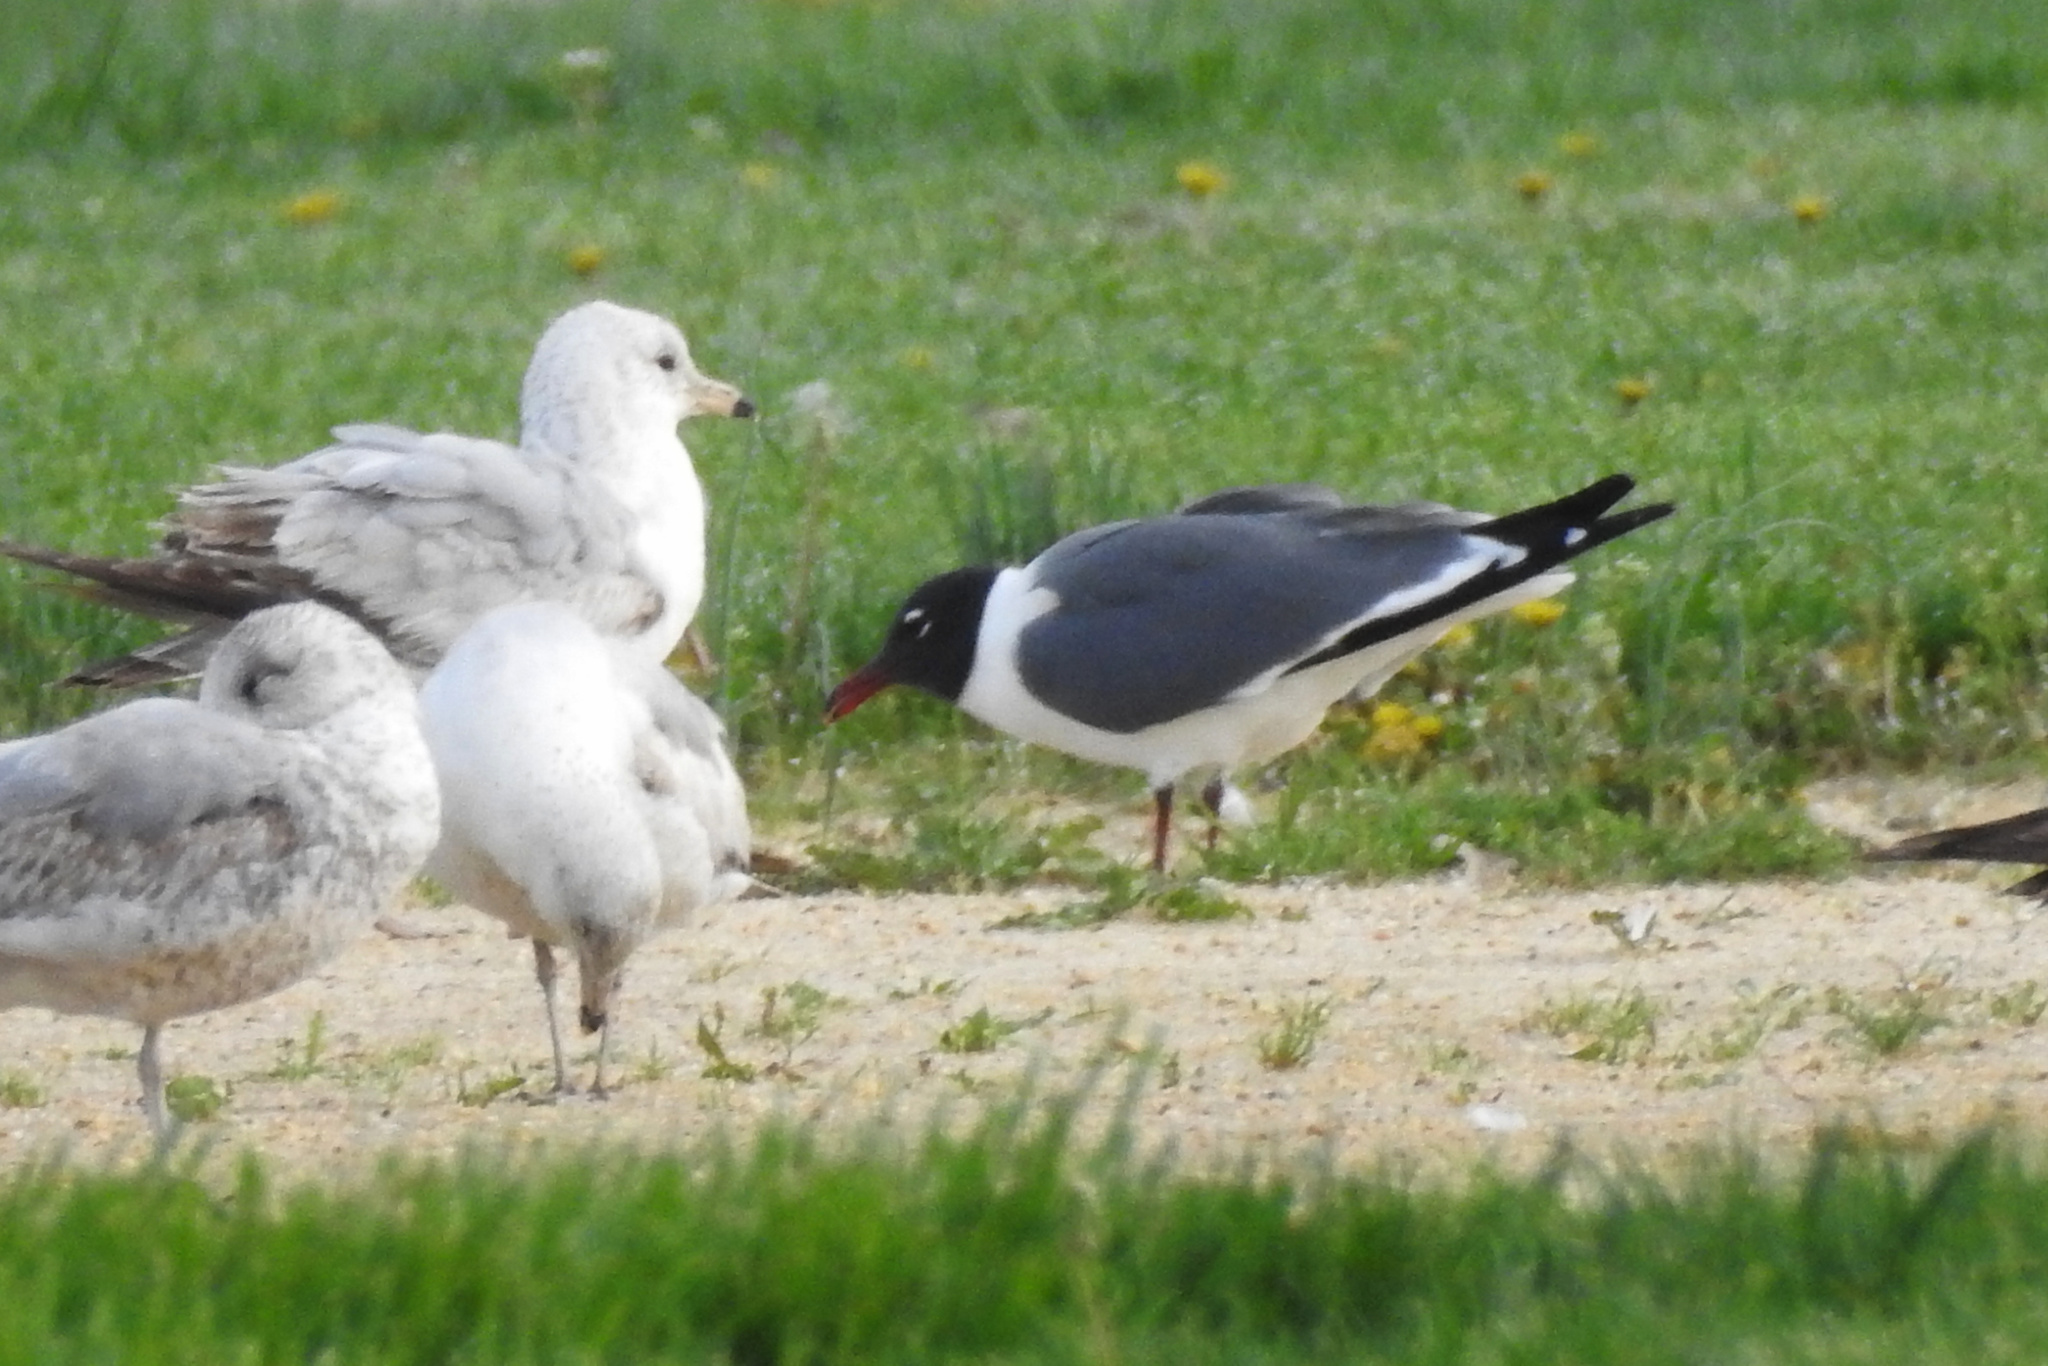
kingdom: Animalia
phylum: Chordata
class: Aves
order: Charadriiformes
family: Laridae
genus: Leucophaeus
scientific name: Leucophaeus atricilla
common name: Laughing gull
